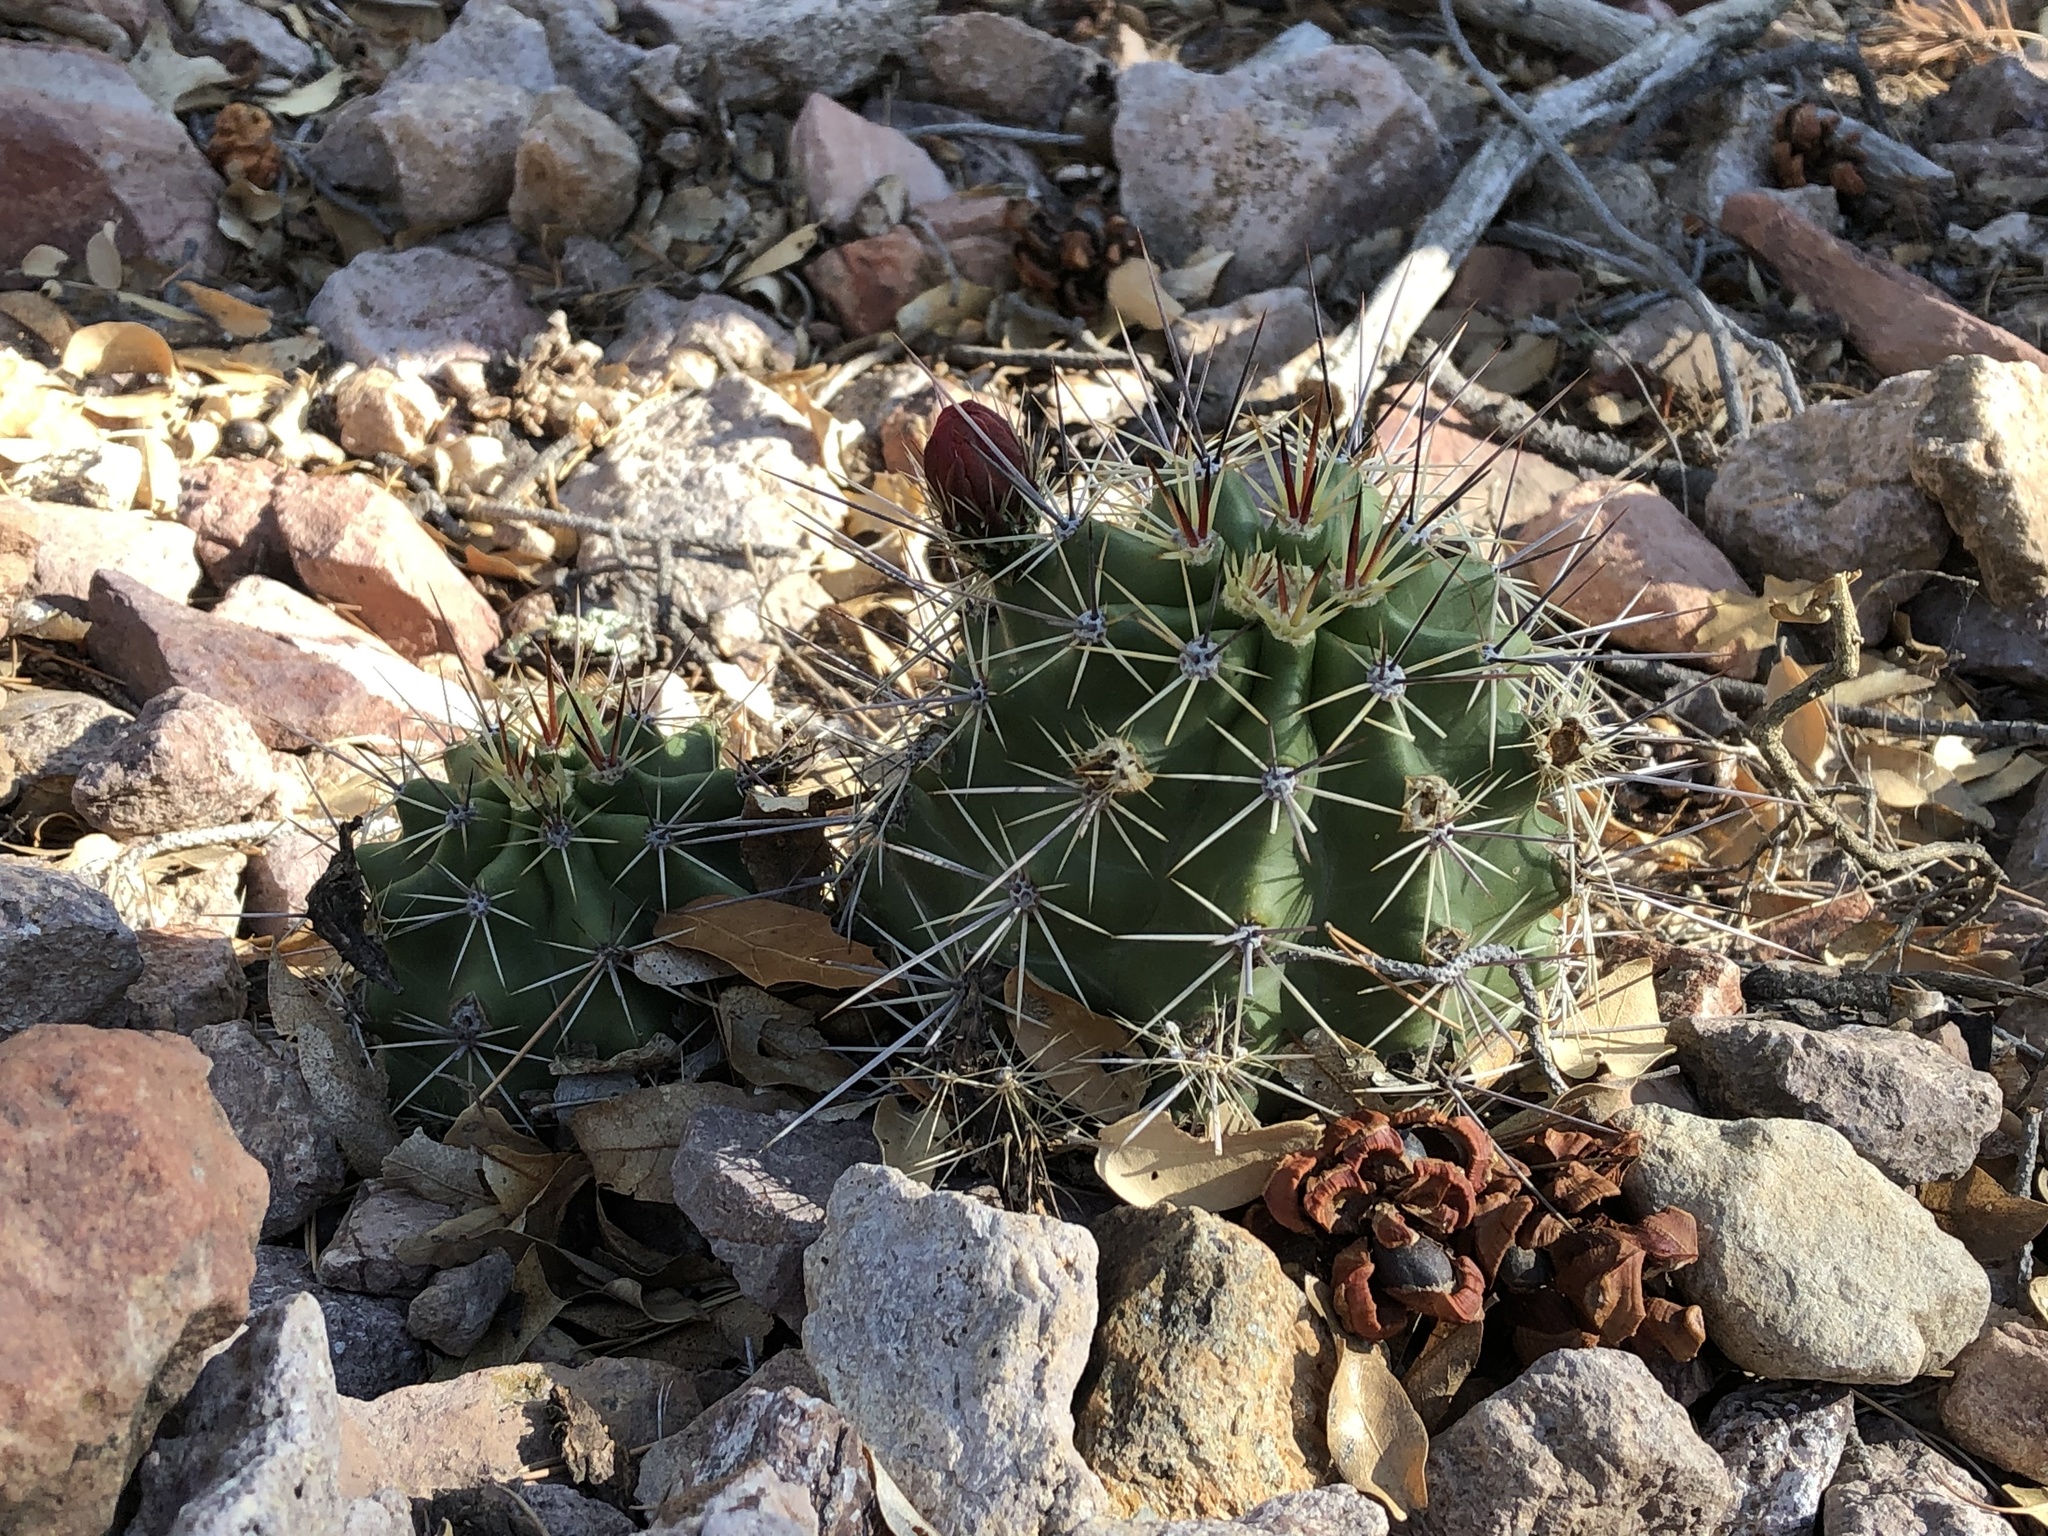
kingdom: Plantae
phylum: Tracheophyta
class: Magnoliopsida
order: Caryophyllales
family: Cactaceae
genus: Echinocereus
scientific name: Echinocereus coccineus
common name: Scarlet hedgehog cactus
